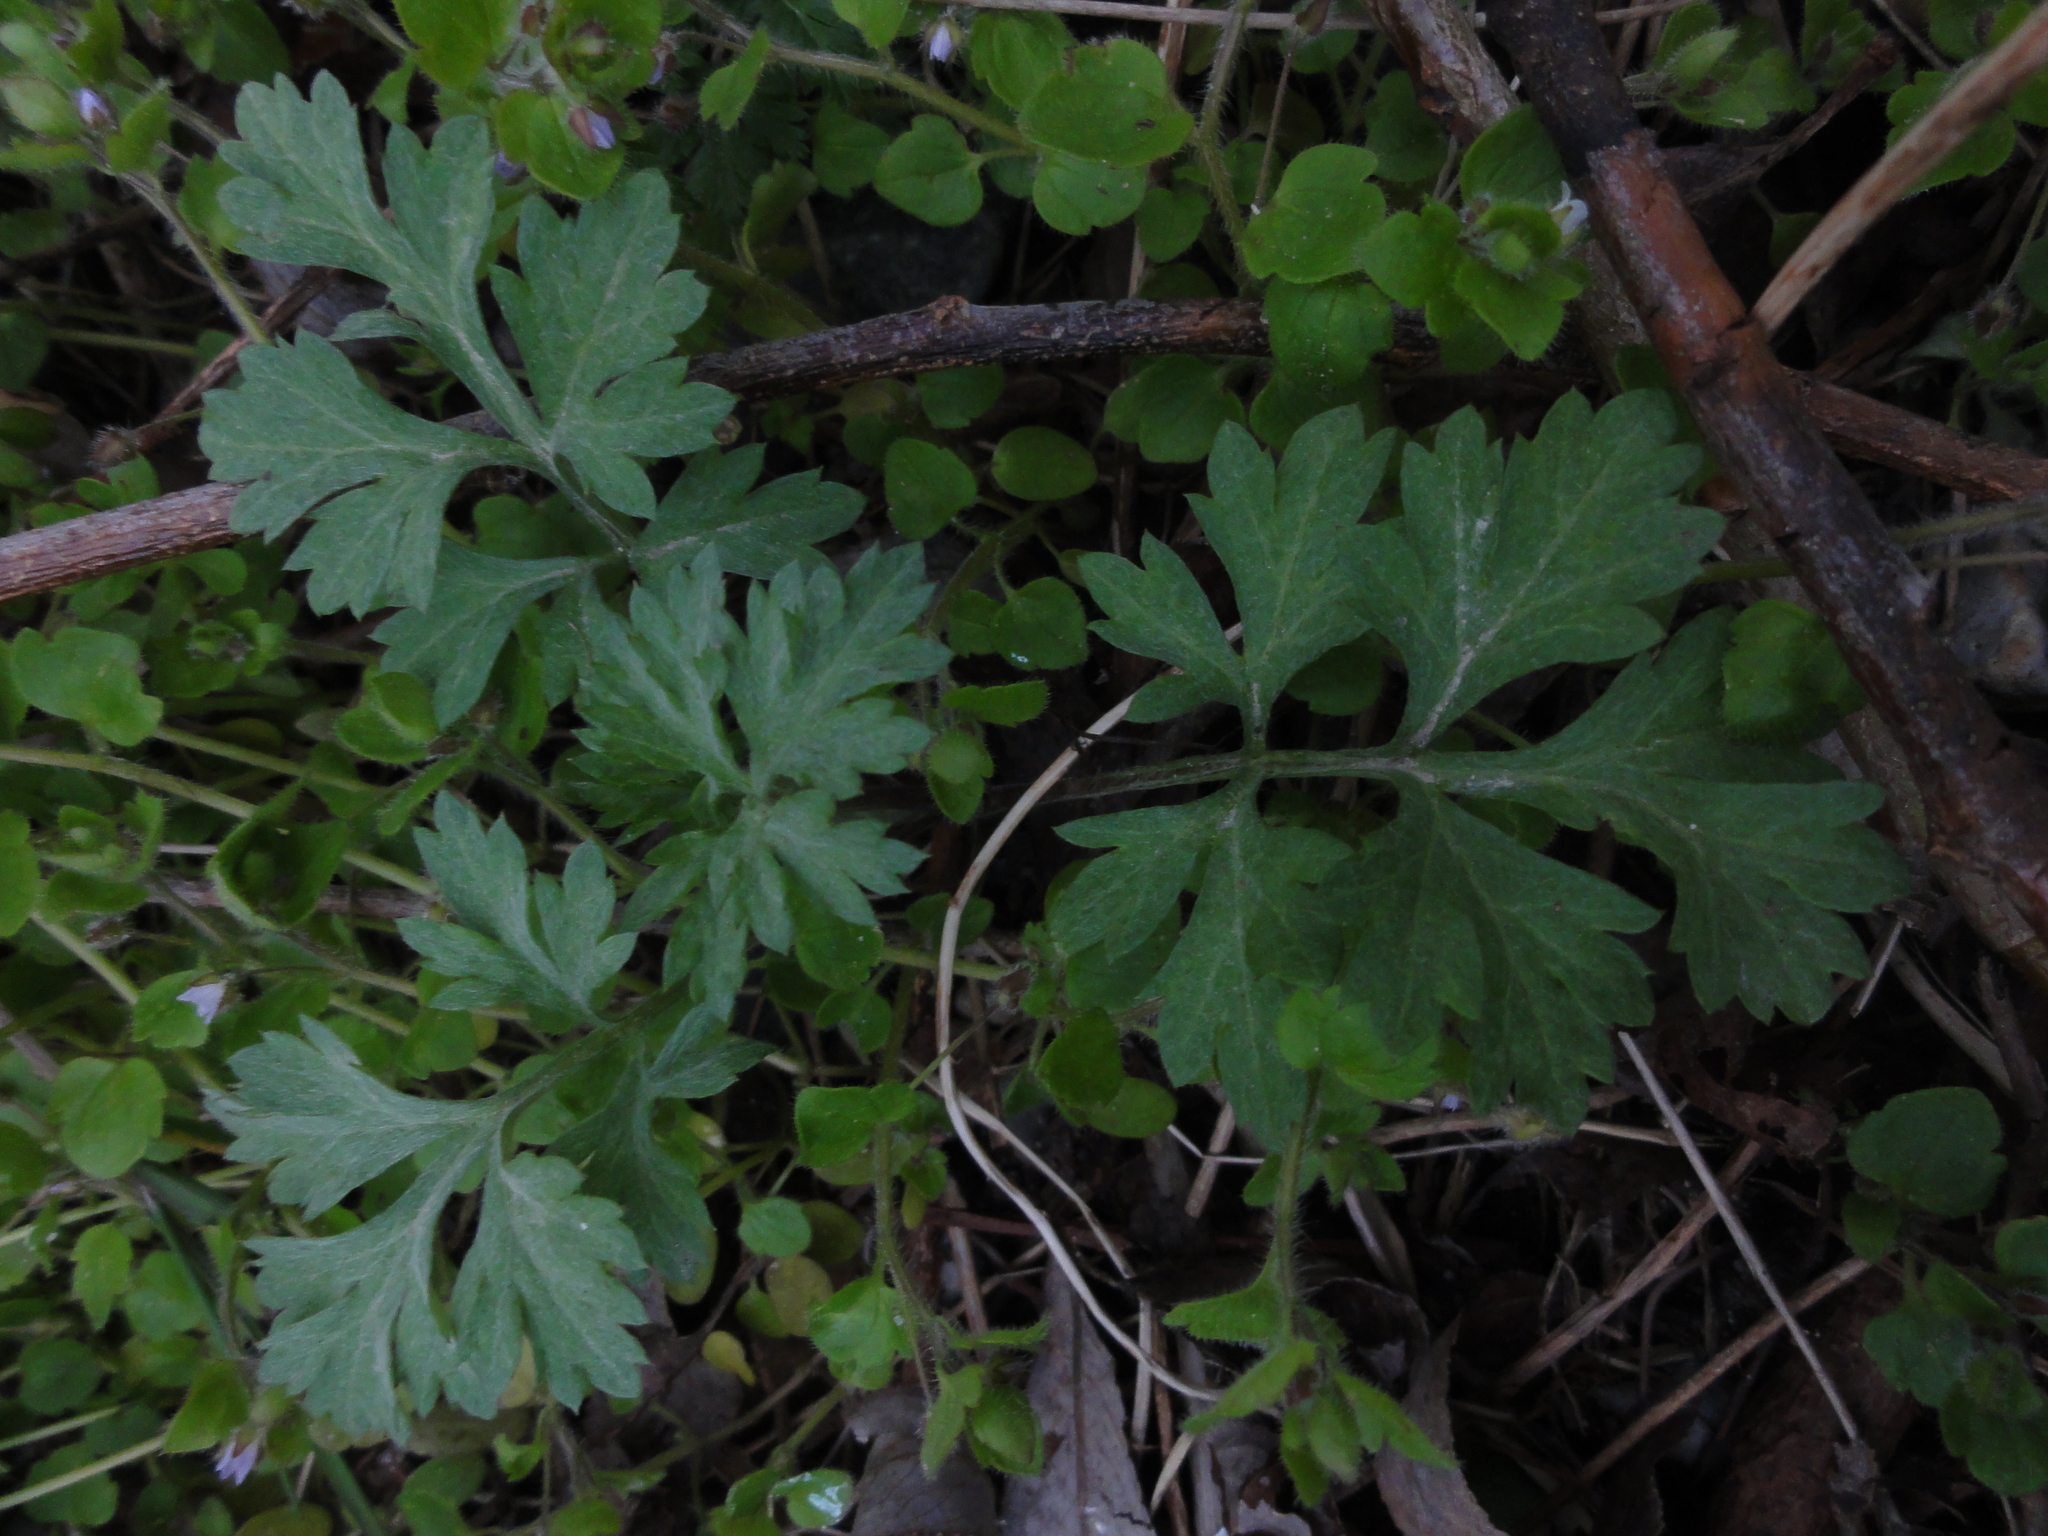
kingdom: Plantae
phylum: Tracheophyta
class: Magnoliopsida
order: Asterales
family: Asteraceae
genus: Artemisia
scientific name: Artemisia vulgaris
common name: Mugwort
